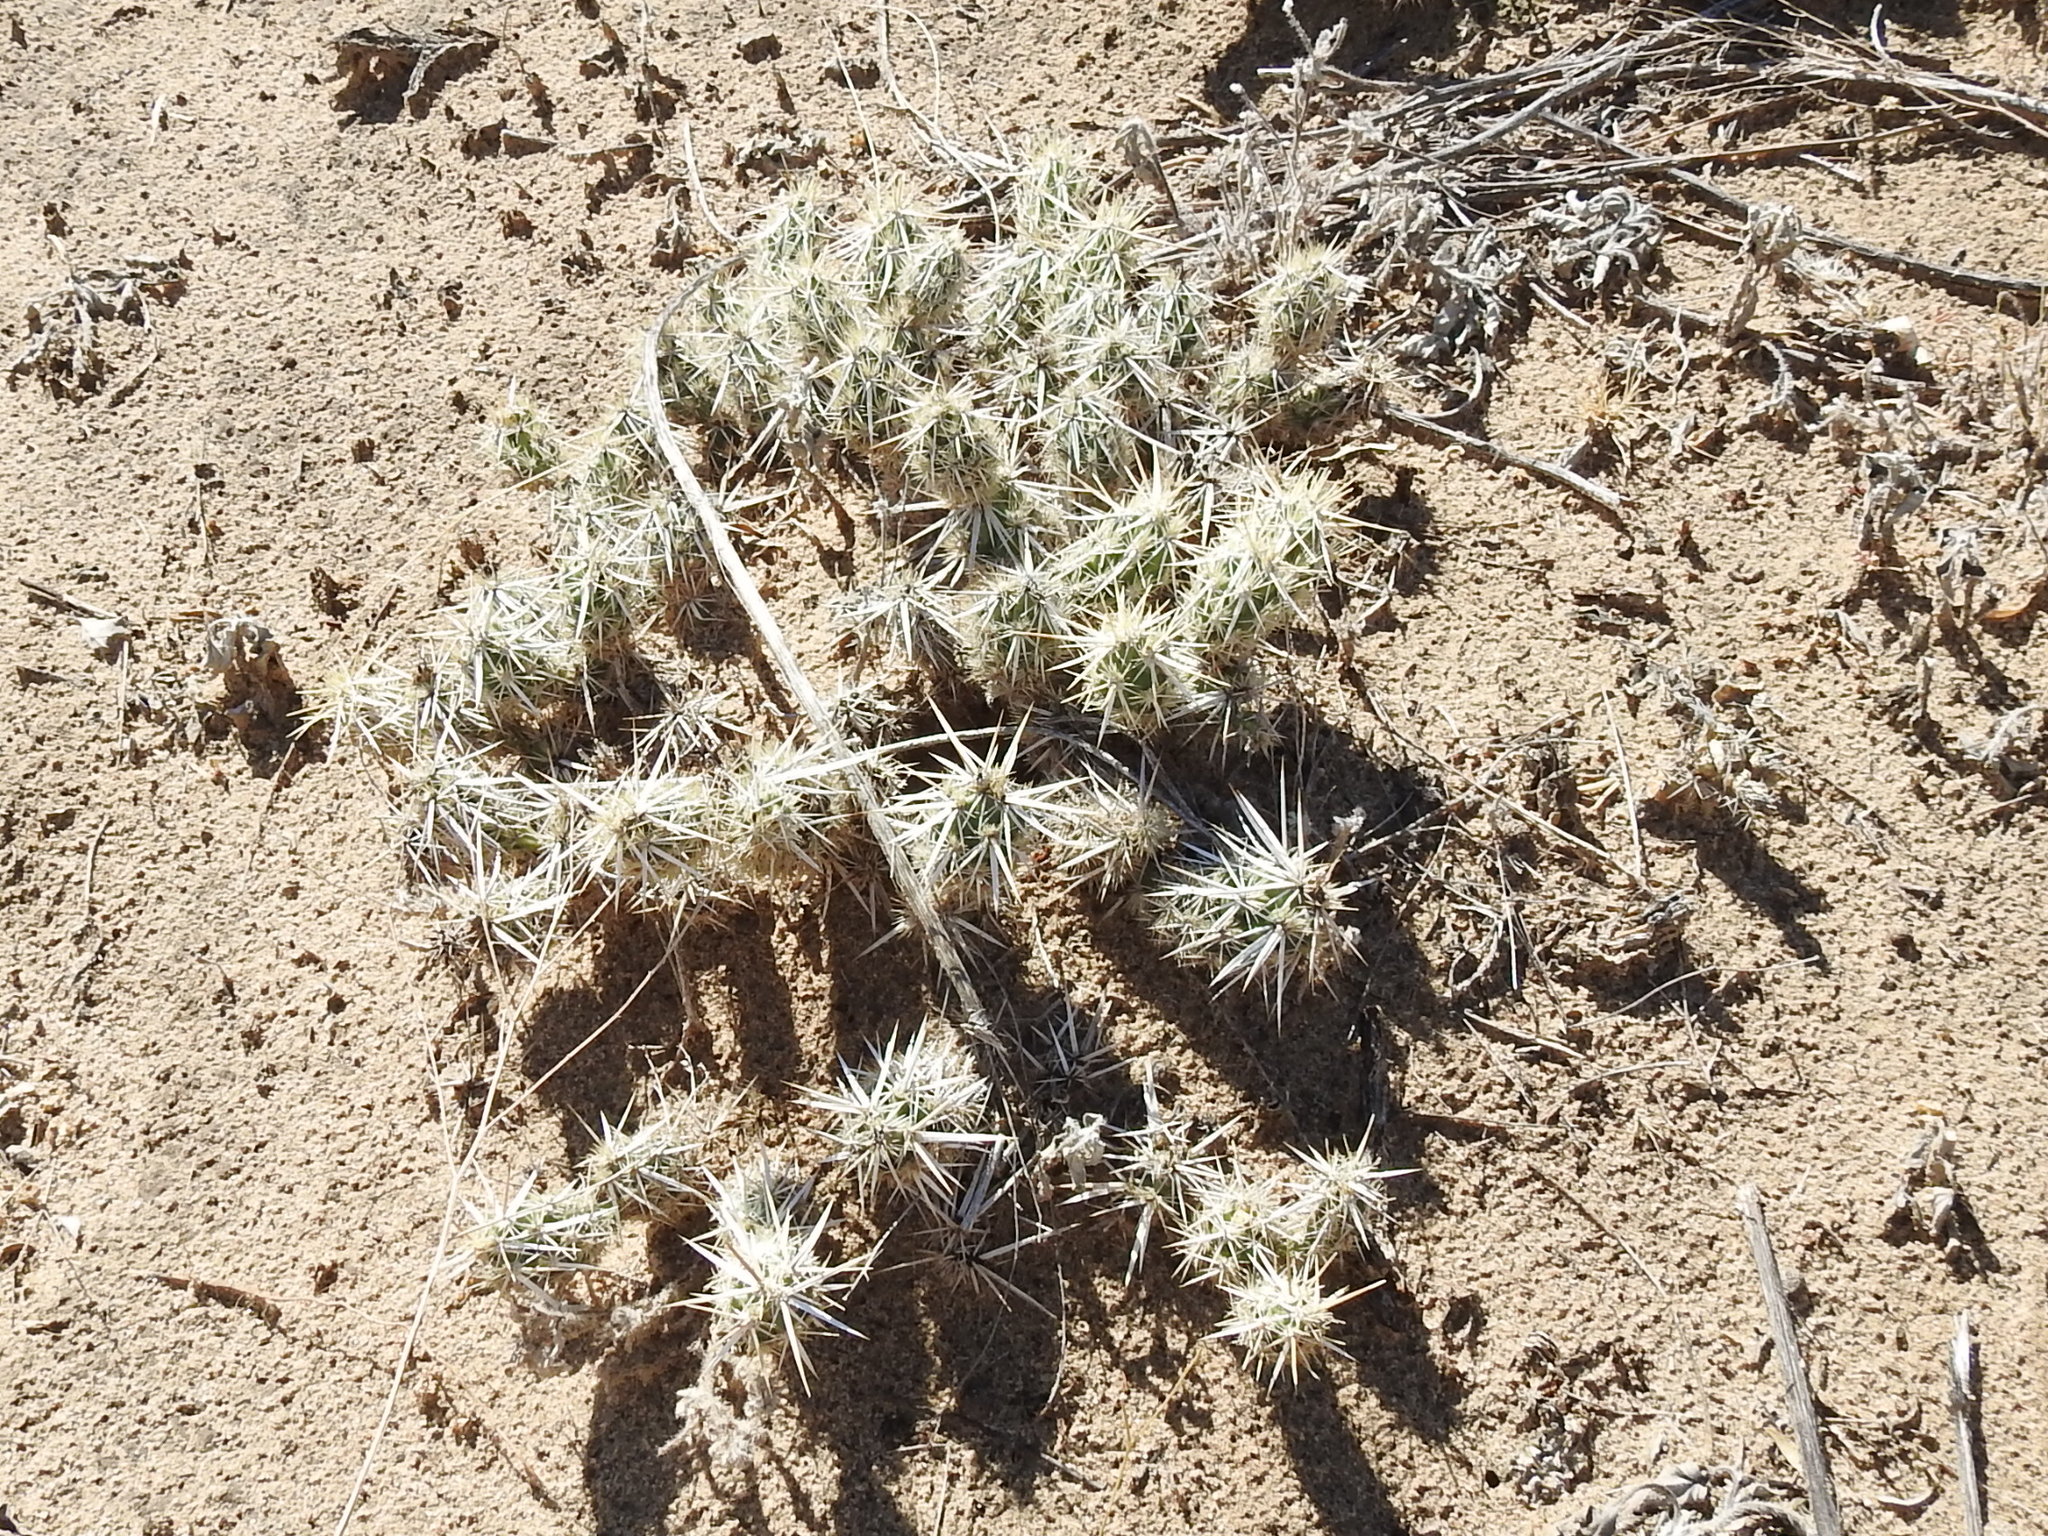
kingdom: Plantae
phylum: Tracheophyta
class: Magnoliopsida
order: Caryophyllales
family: Cactaceae
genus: Grusonia
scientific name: Grusonia clavata
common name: Club cholla
